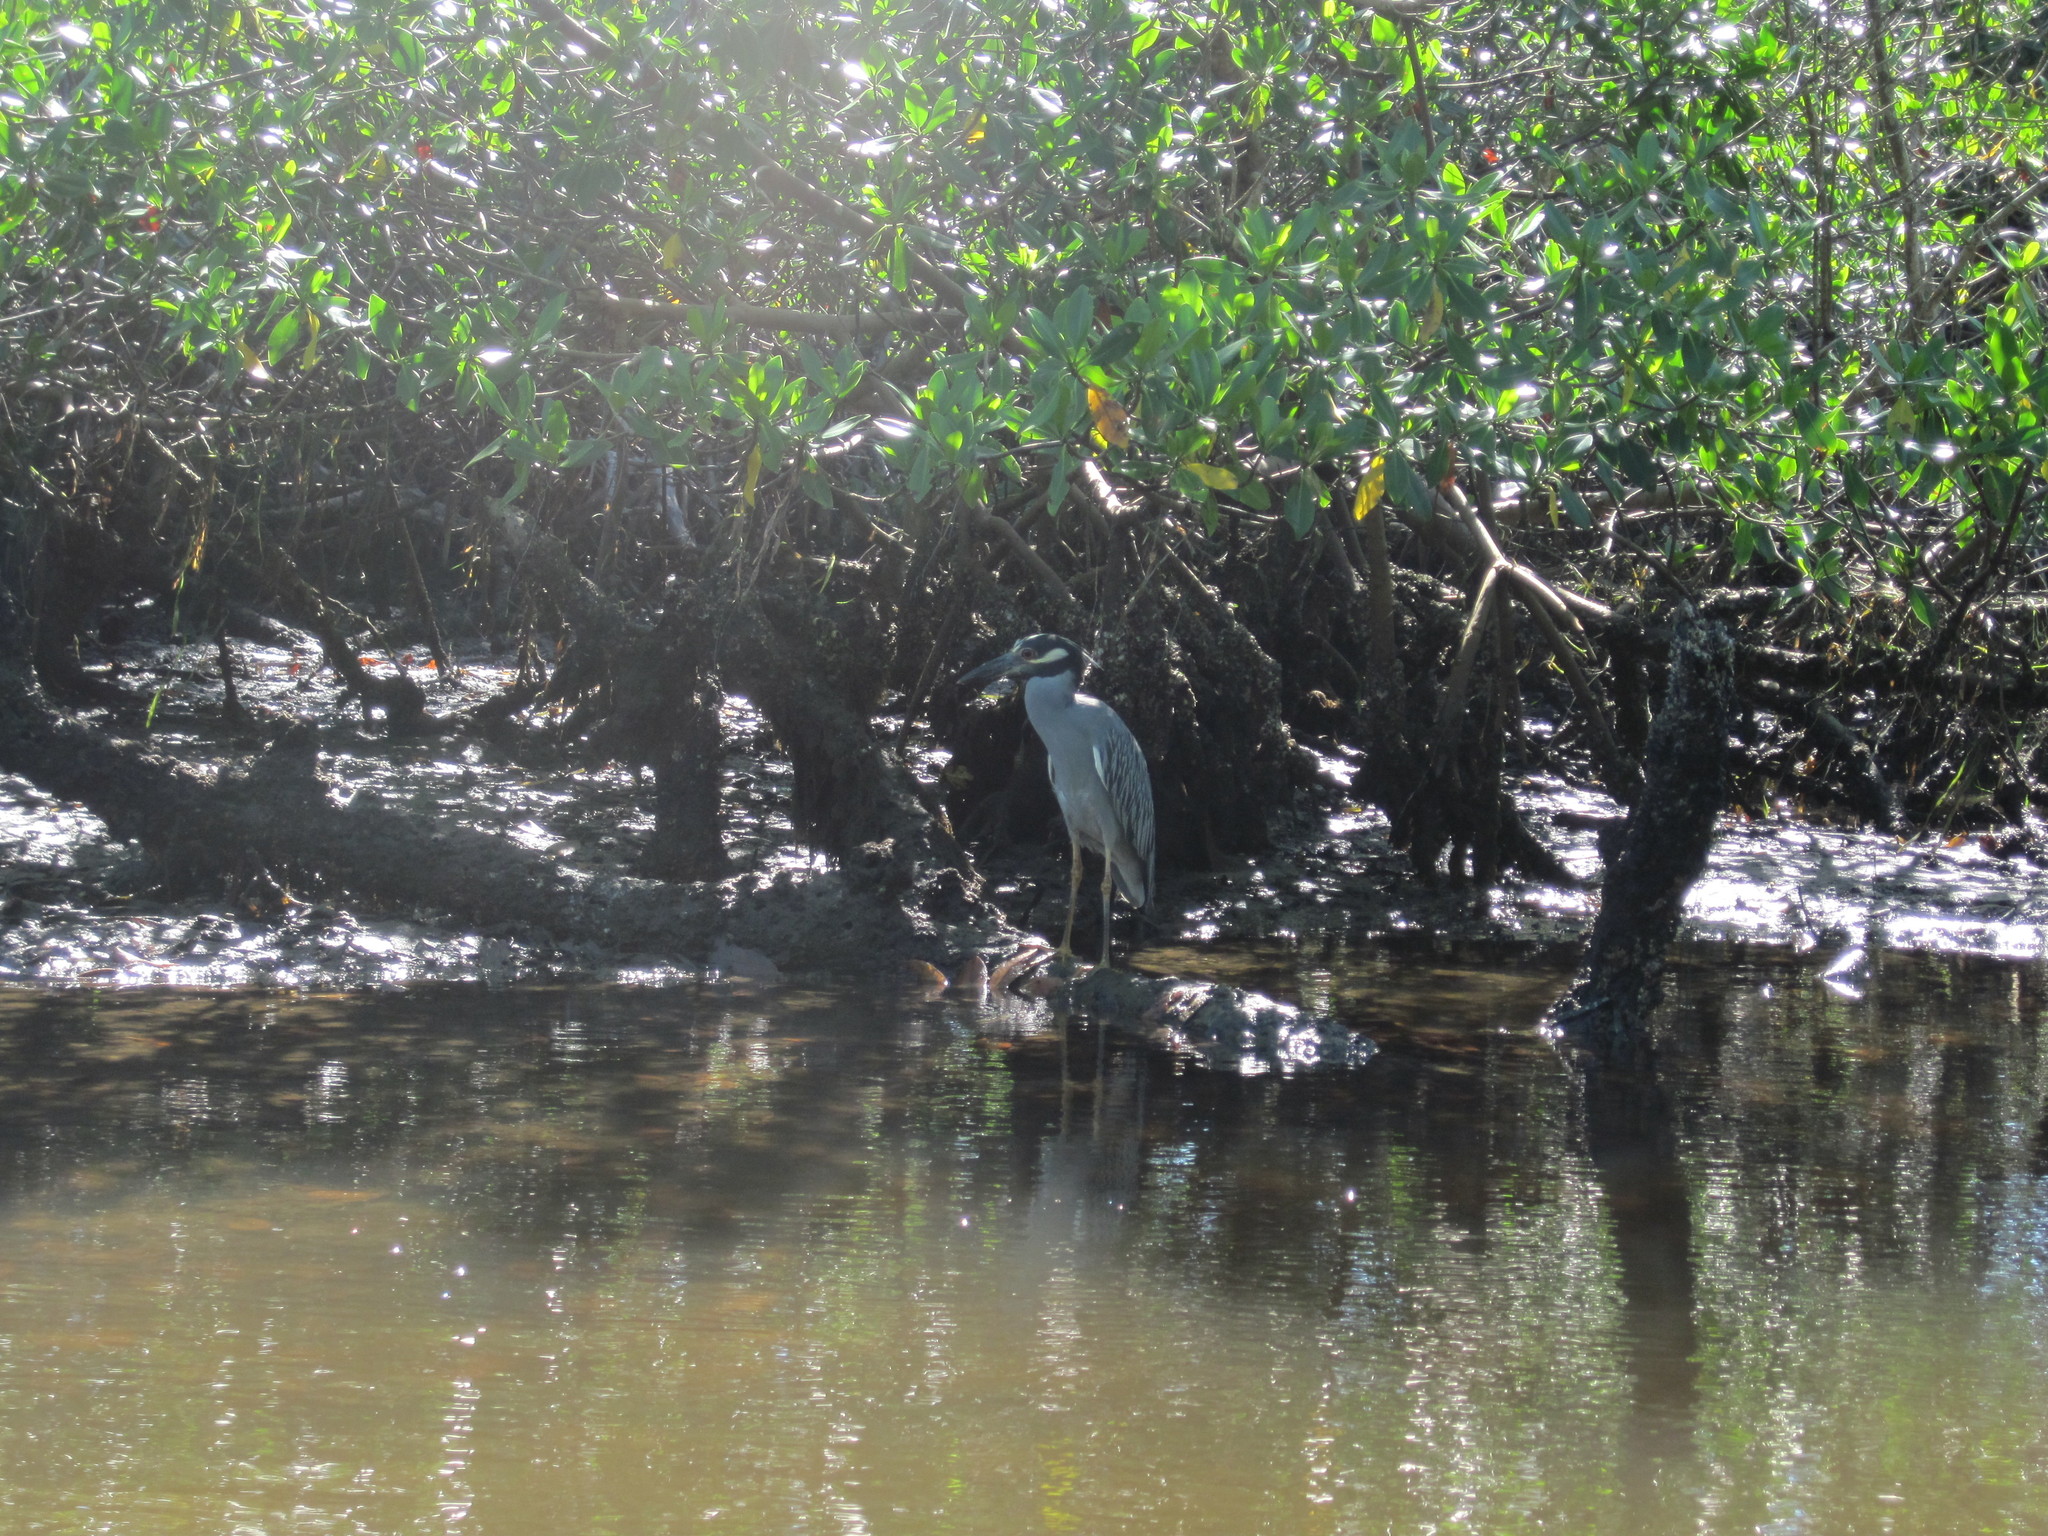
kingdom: Animalia
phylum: Chordata
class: Aves
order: Pelecaniformes
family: Ardeidae
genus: Nyctanassa
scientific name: Nyctanassa violacea
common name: Yellow-crowned night heron
